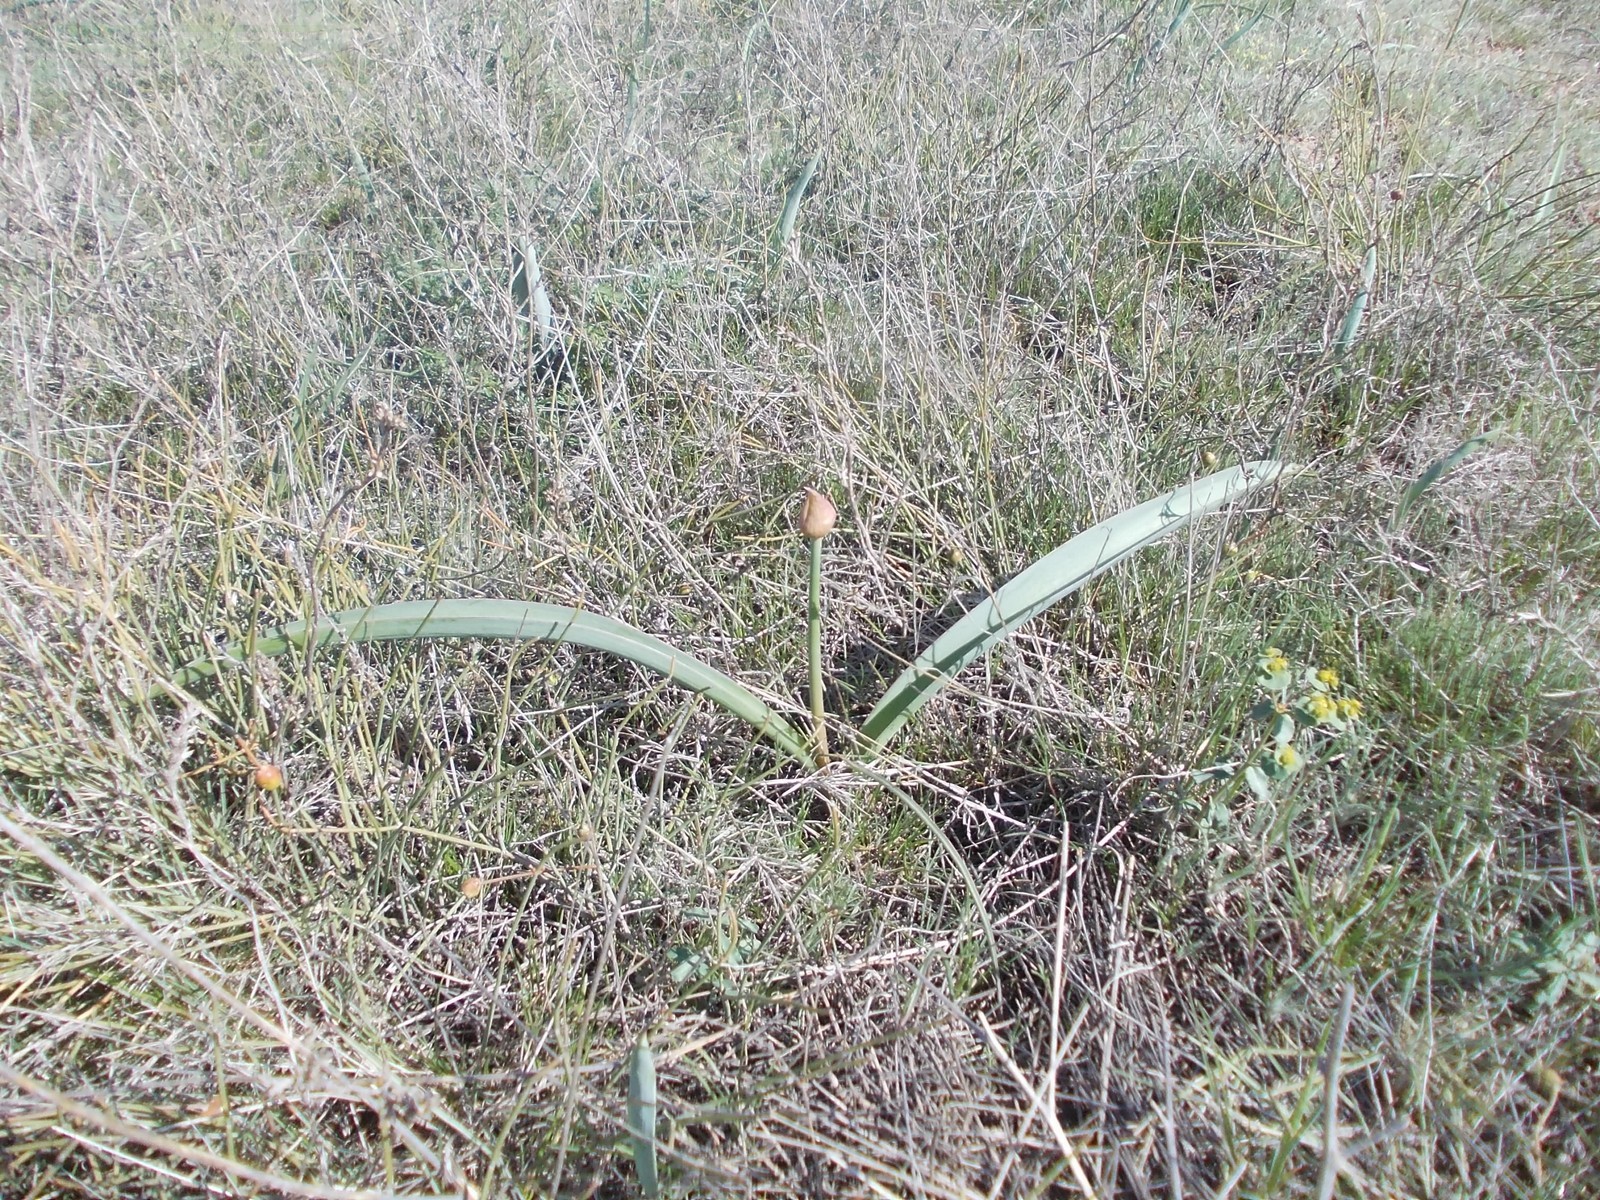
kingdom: Plantae
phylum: Tracheophyta
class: Liliopsida
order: Asparagales
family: Amaryllidaceae
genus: Allium
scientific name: Allium tulipifolium
